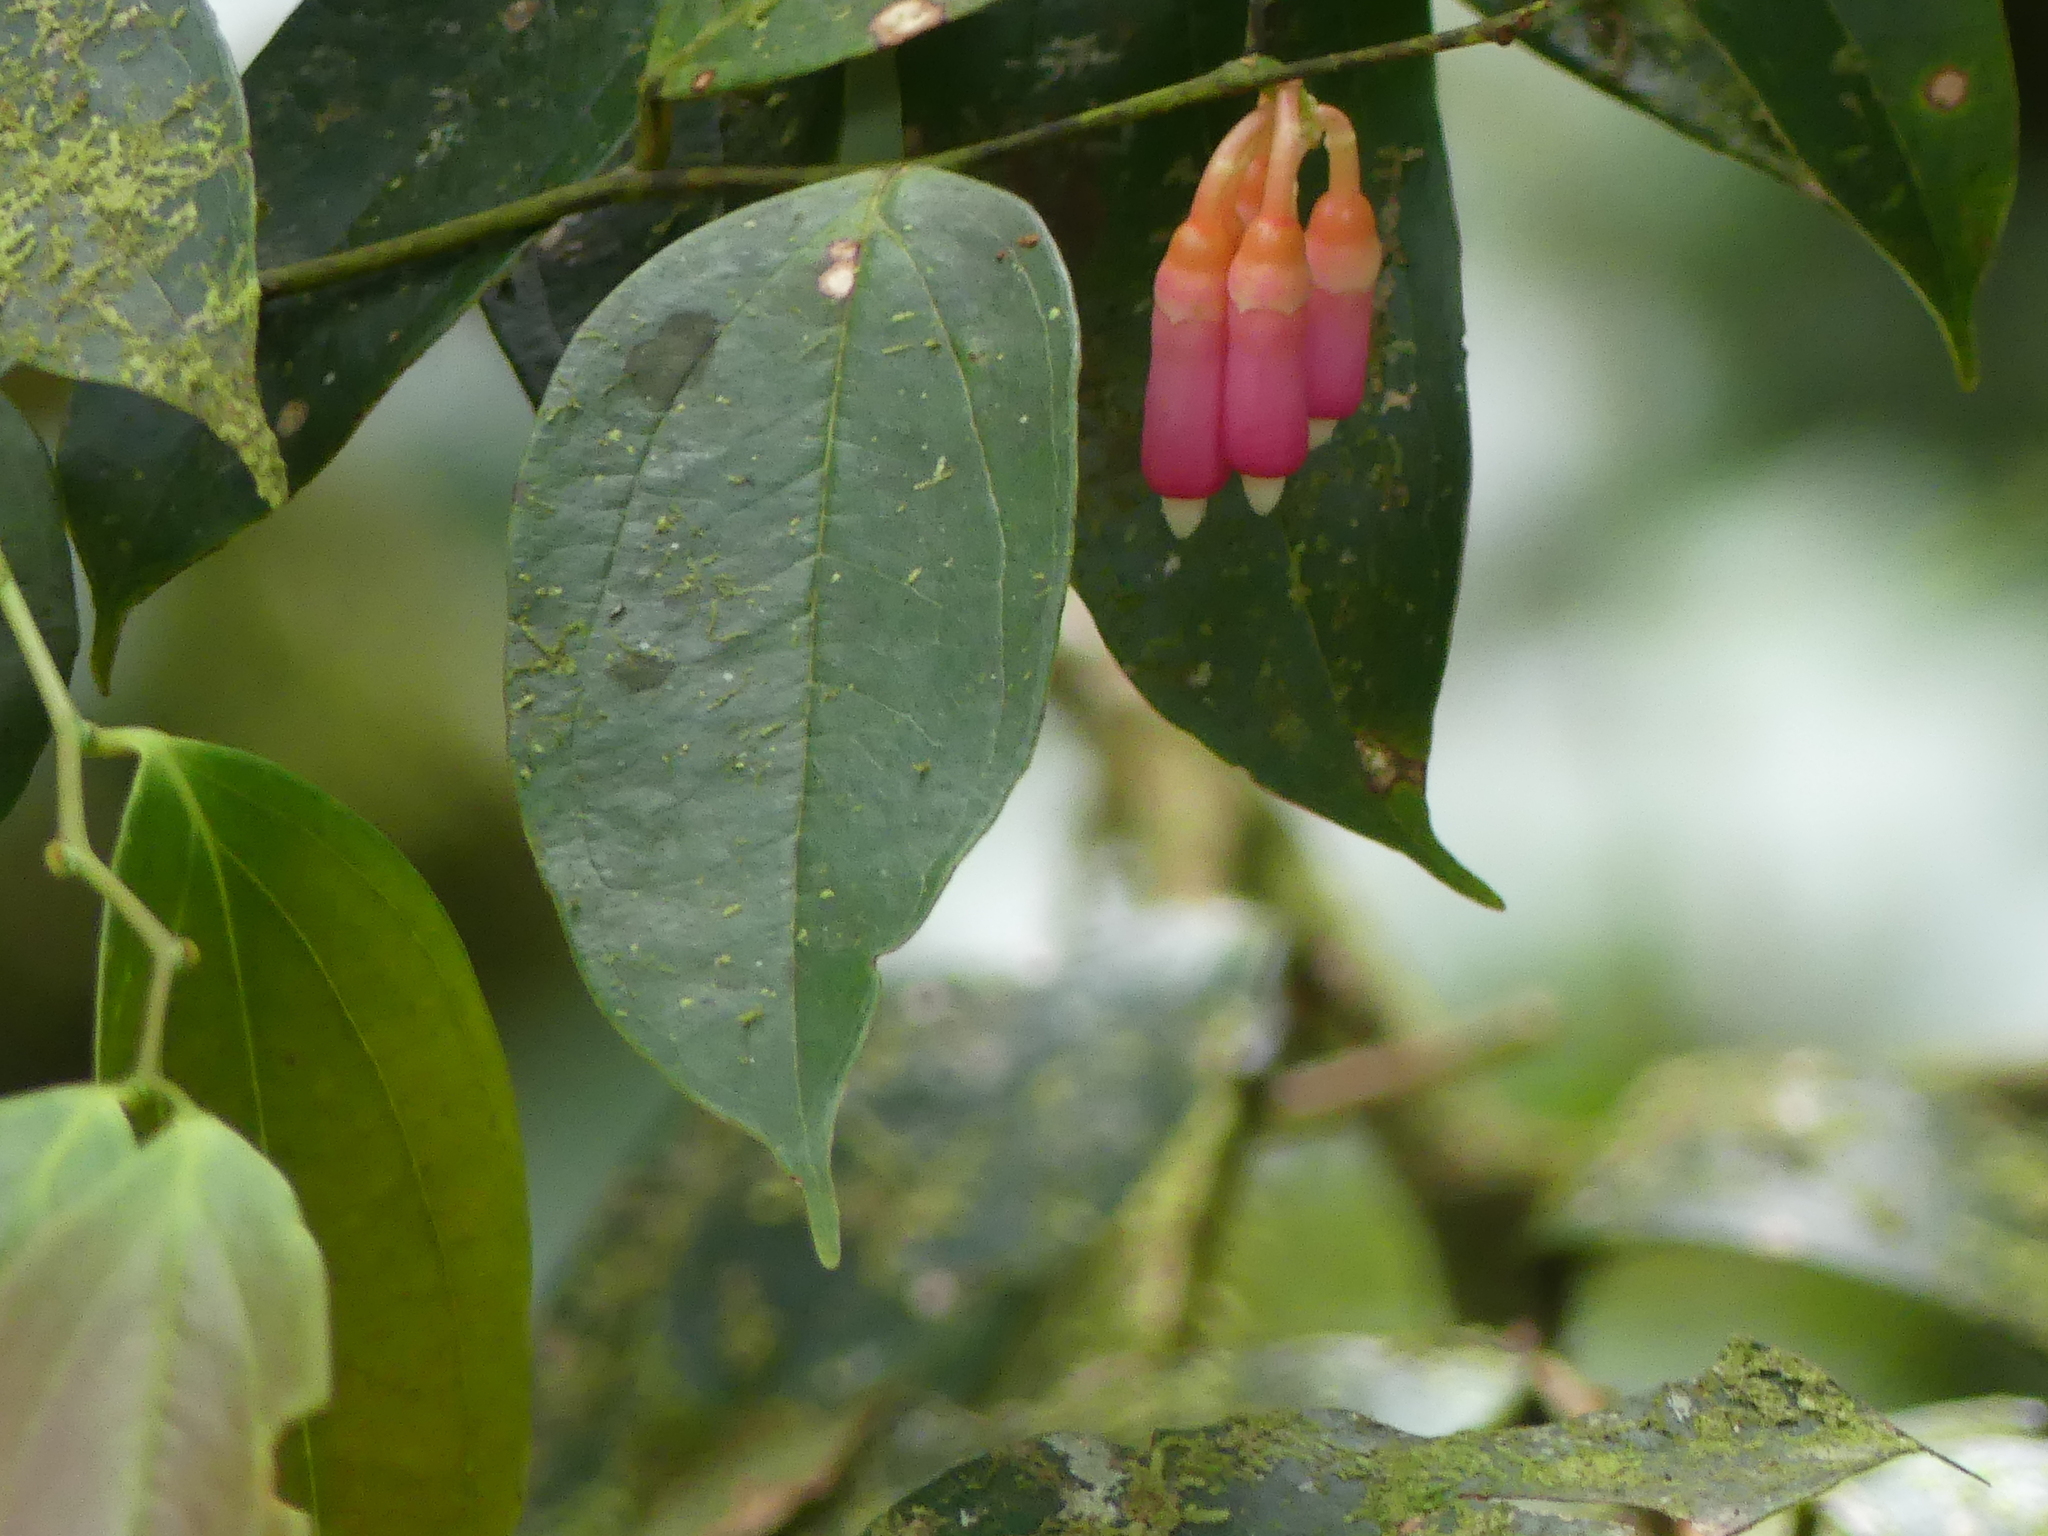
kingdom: Plantae
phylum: Tracheophyta
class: Magnoliopsida
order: Ericales
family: Ericaceae
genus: Psammisia
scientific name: Psammisia ramiflora
